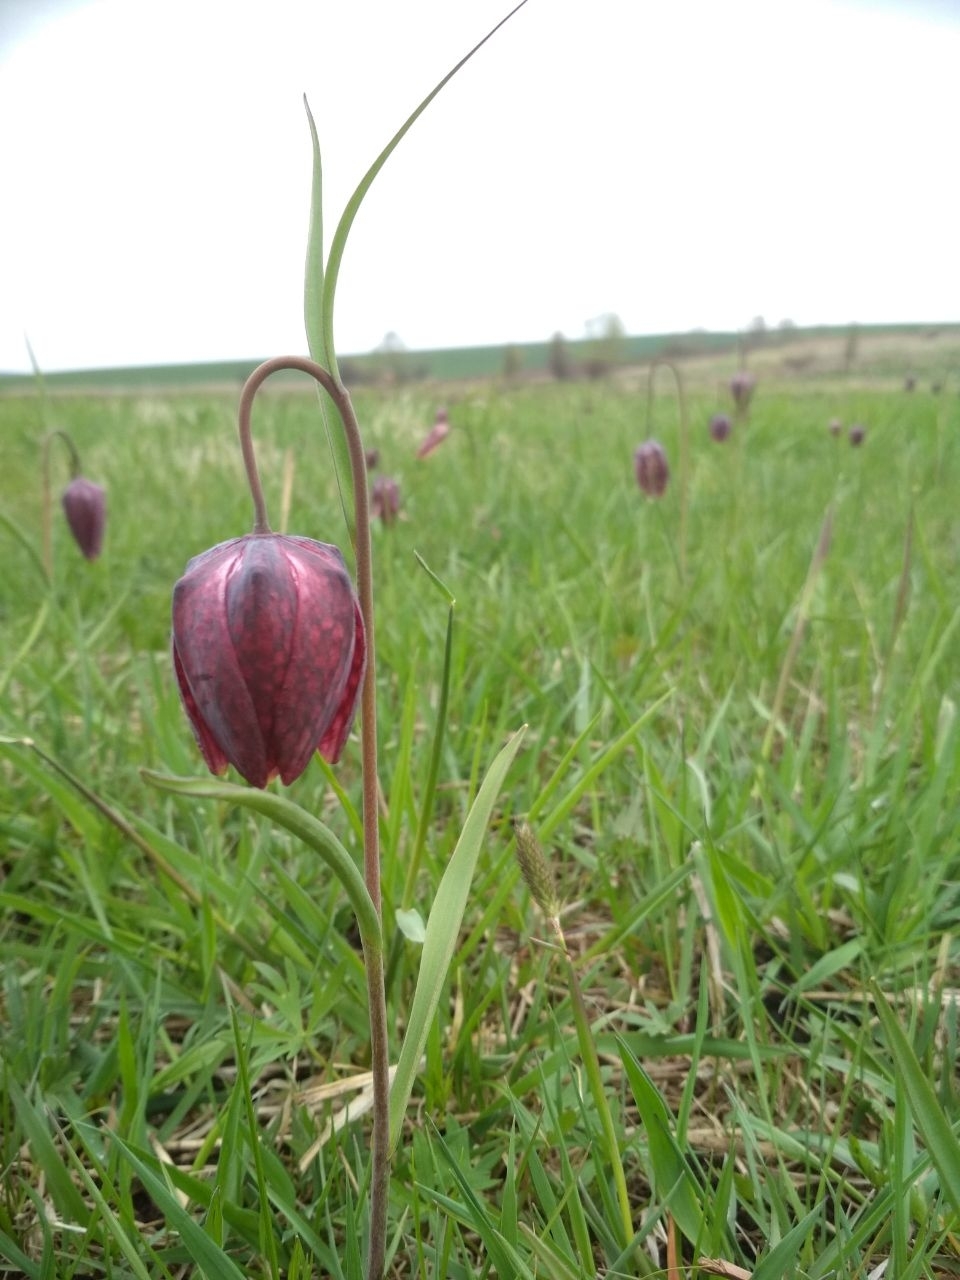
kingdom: Plantae
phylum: Tracheophyta
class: Liliopsida
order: Liliales
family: Liliaceae
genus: Fritillaria
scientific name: Fritillaria meleagris
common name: Fritillary
